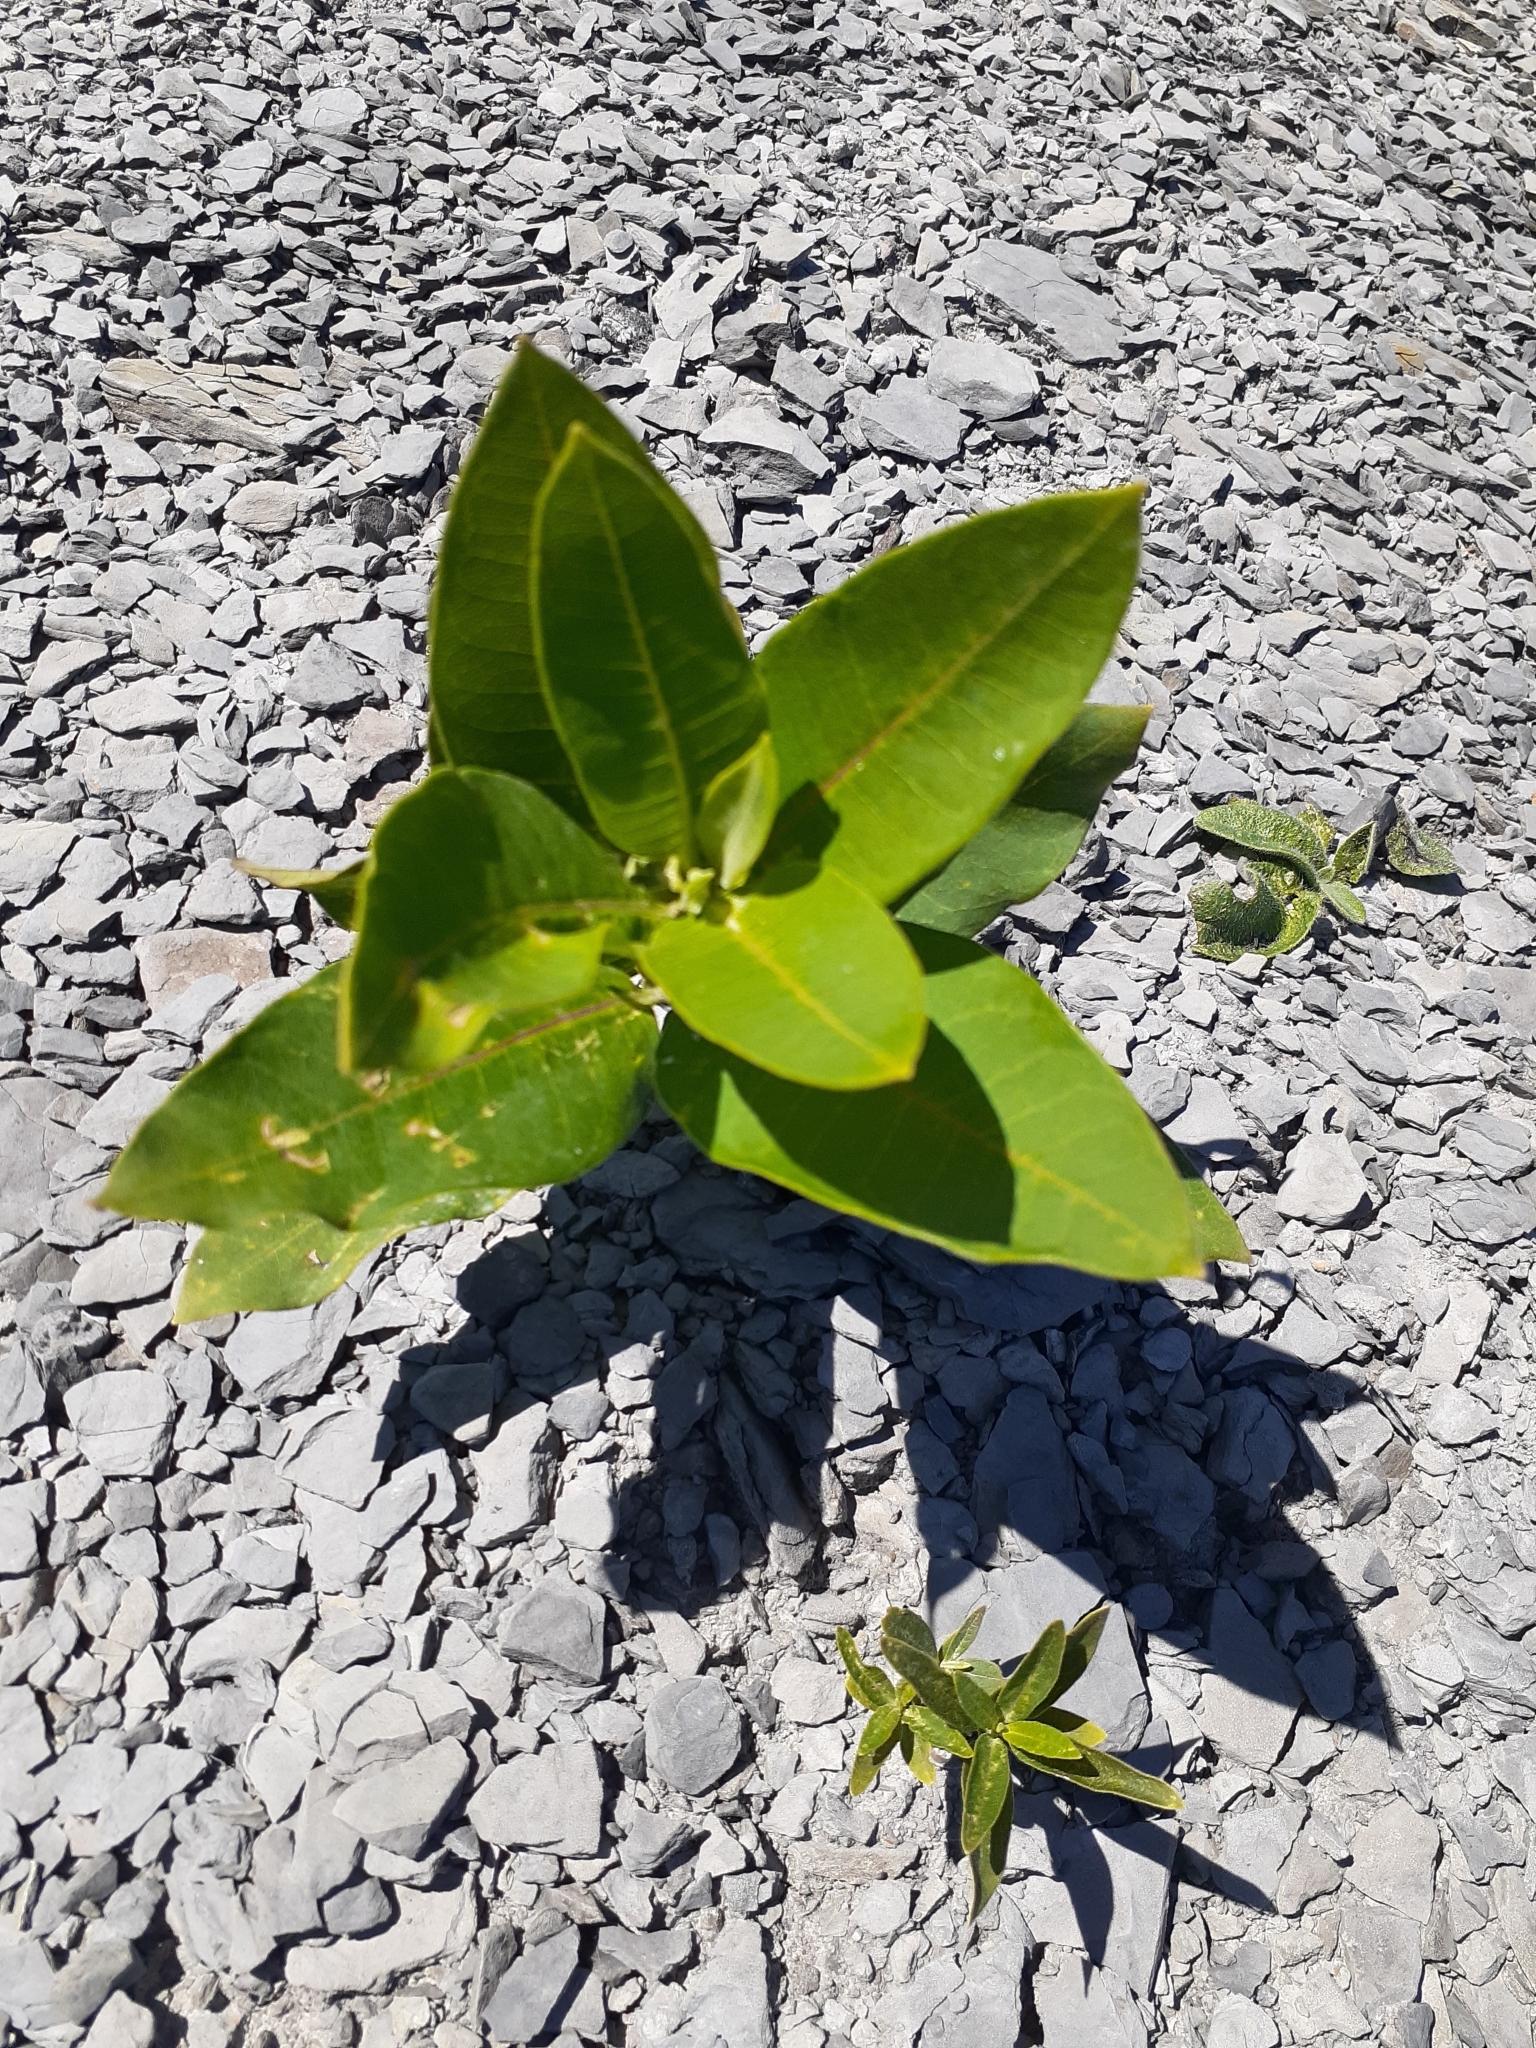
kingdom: Plantae
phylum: Tracheophyta
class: Magnoliopsida
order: Gentianales
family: Apocynaceae
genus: Asclepias
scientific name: Asclepias syriaca
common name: Common milkweed
